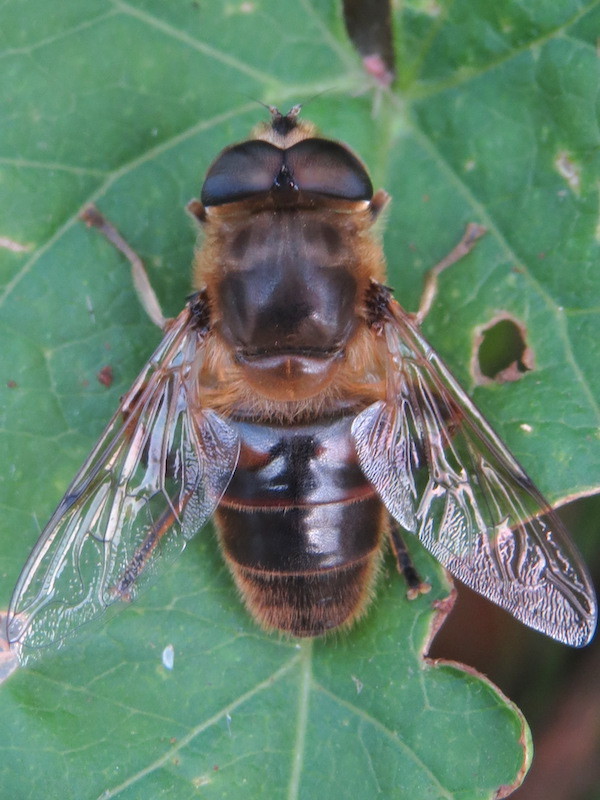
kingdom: Animalia
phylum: Arthropoda
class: Insecta
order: Diptera
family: Syrphidae
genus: Eristalis
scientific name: Eristalis tenax
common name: Drone fly
